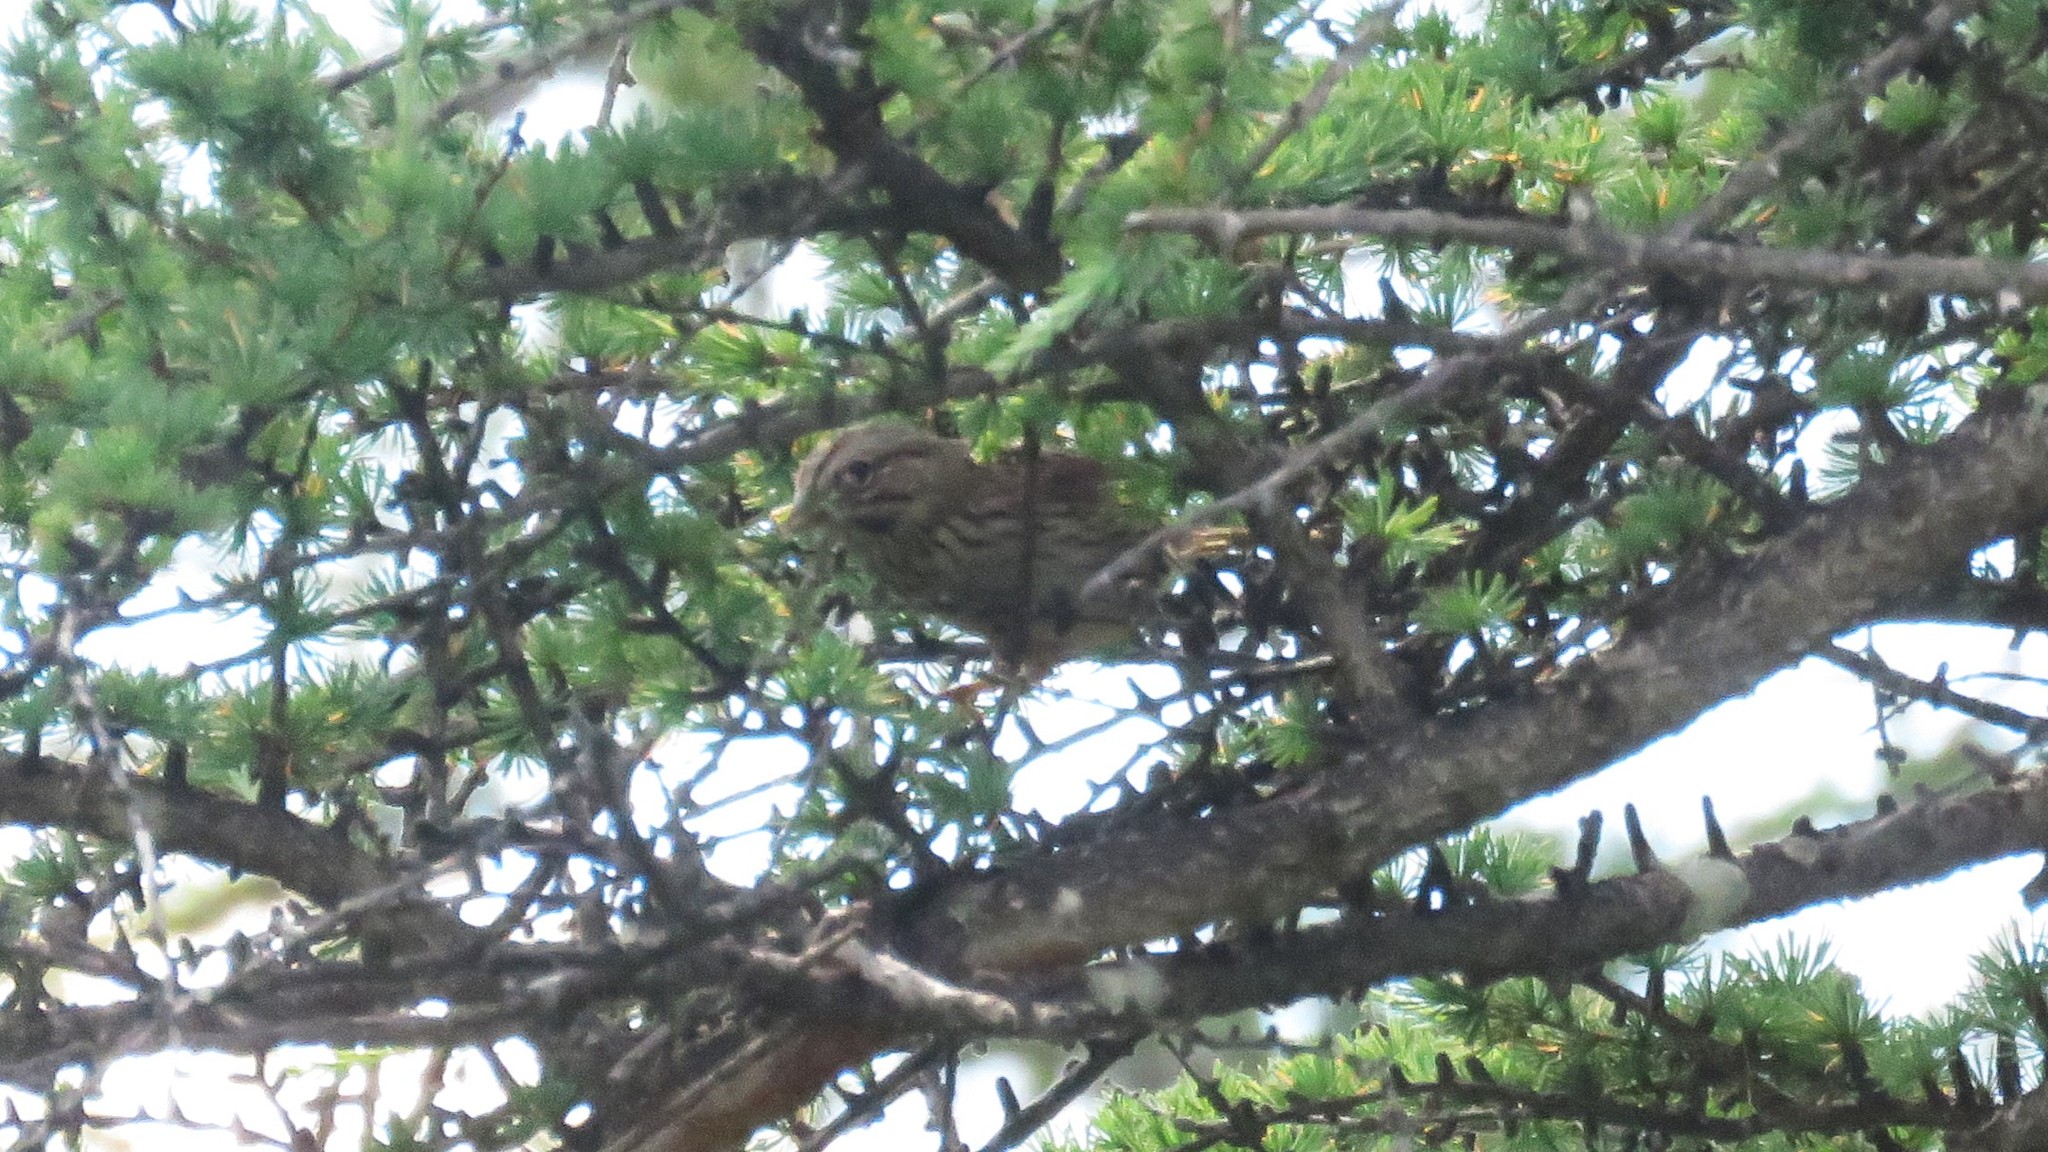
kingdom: Animalia
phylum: Chordata
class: Aves
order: Passeriformes
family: Passerellidae
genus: Melospiza
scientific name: Melospiza lincolnii
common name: Lincoln's sparrow
